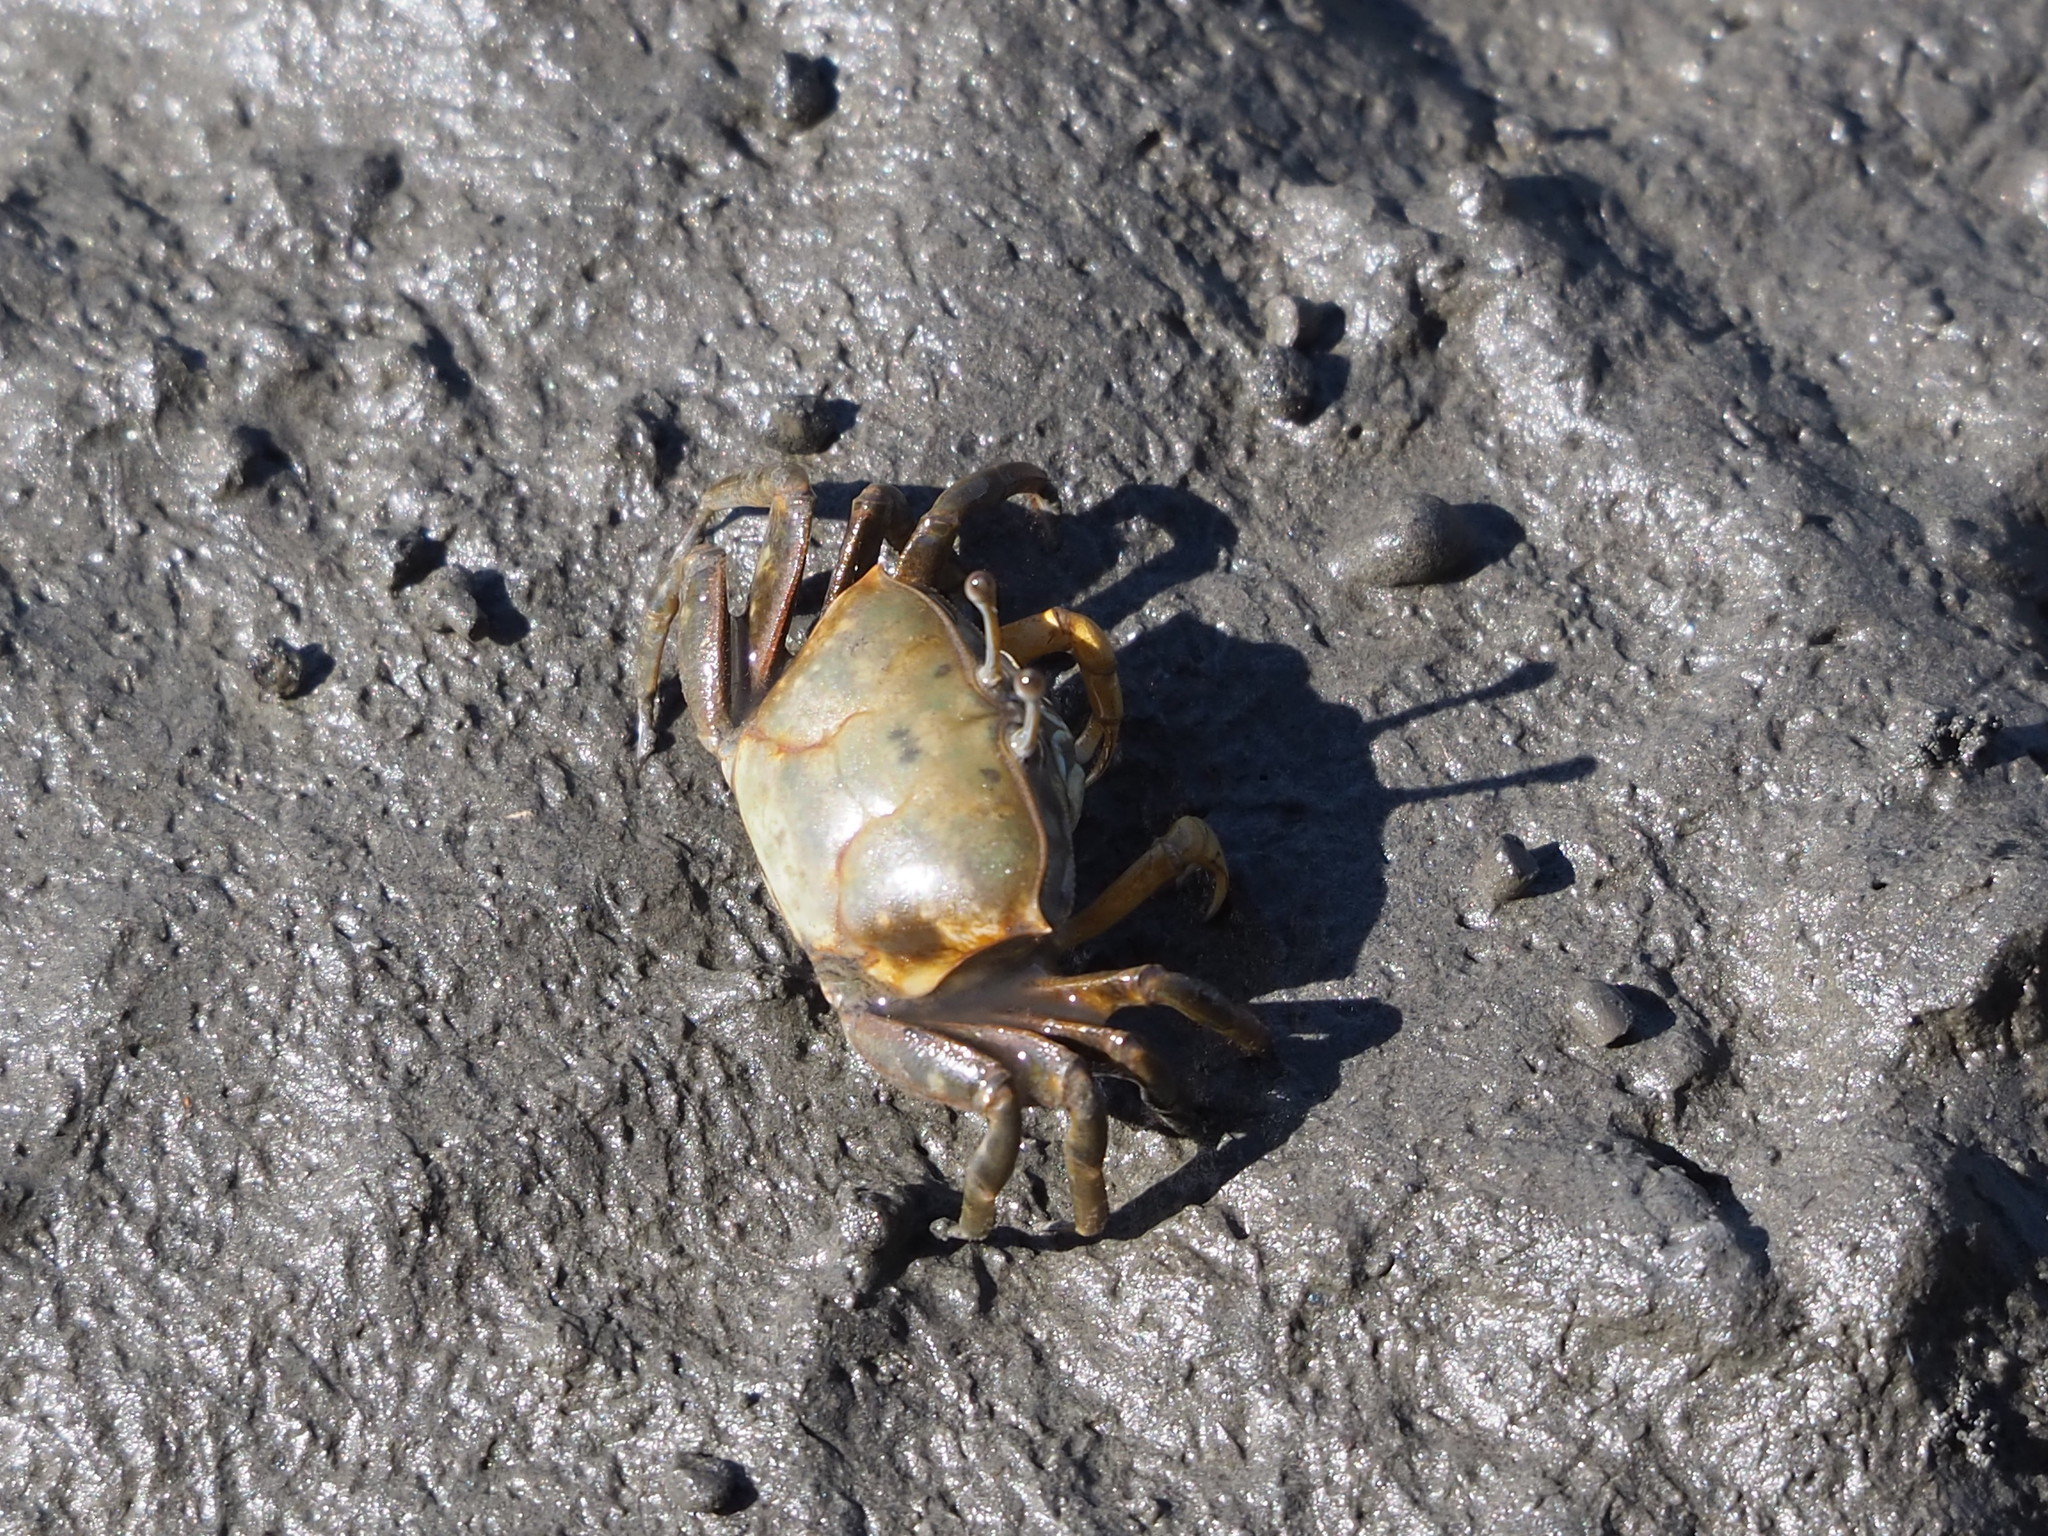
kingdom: Animalia
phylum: Arthropoda
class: Malacostraca
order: Decapoda
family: Ocypodidae
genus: Gelasimus
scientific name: Gelasimus borealis
